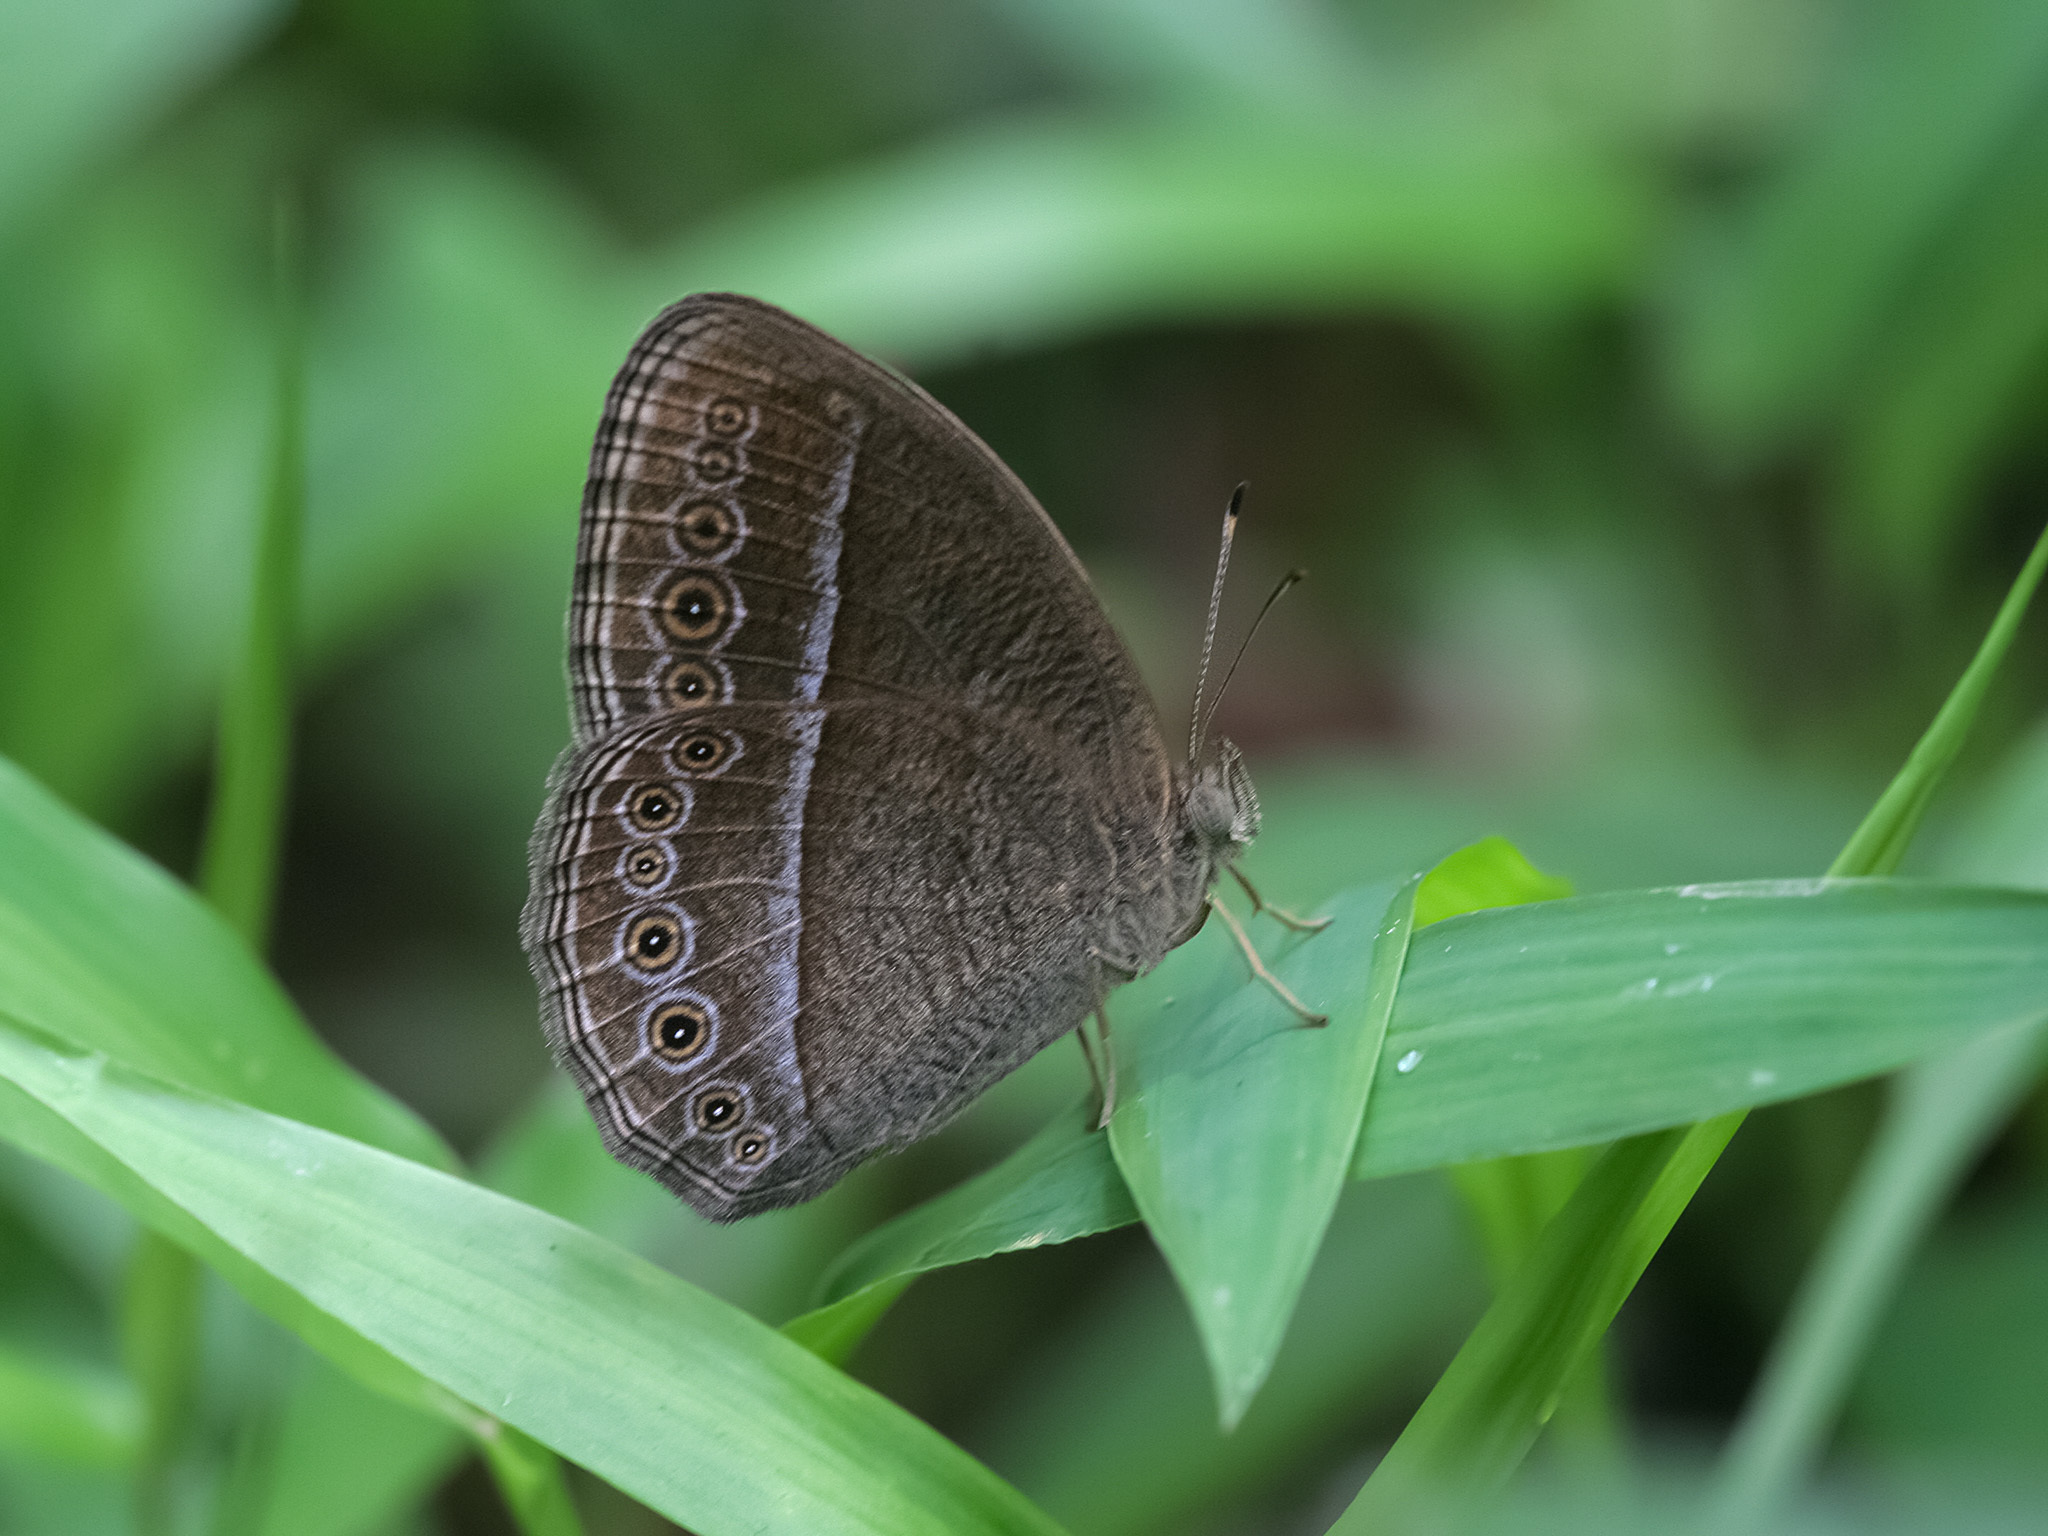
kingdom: Animalia
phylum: Arthropoda
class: Insecta
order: Lepidoptera
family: Nymphalidae
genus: Mycalesis
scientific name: Mycalesis Telinga janardana
